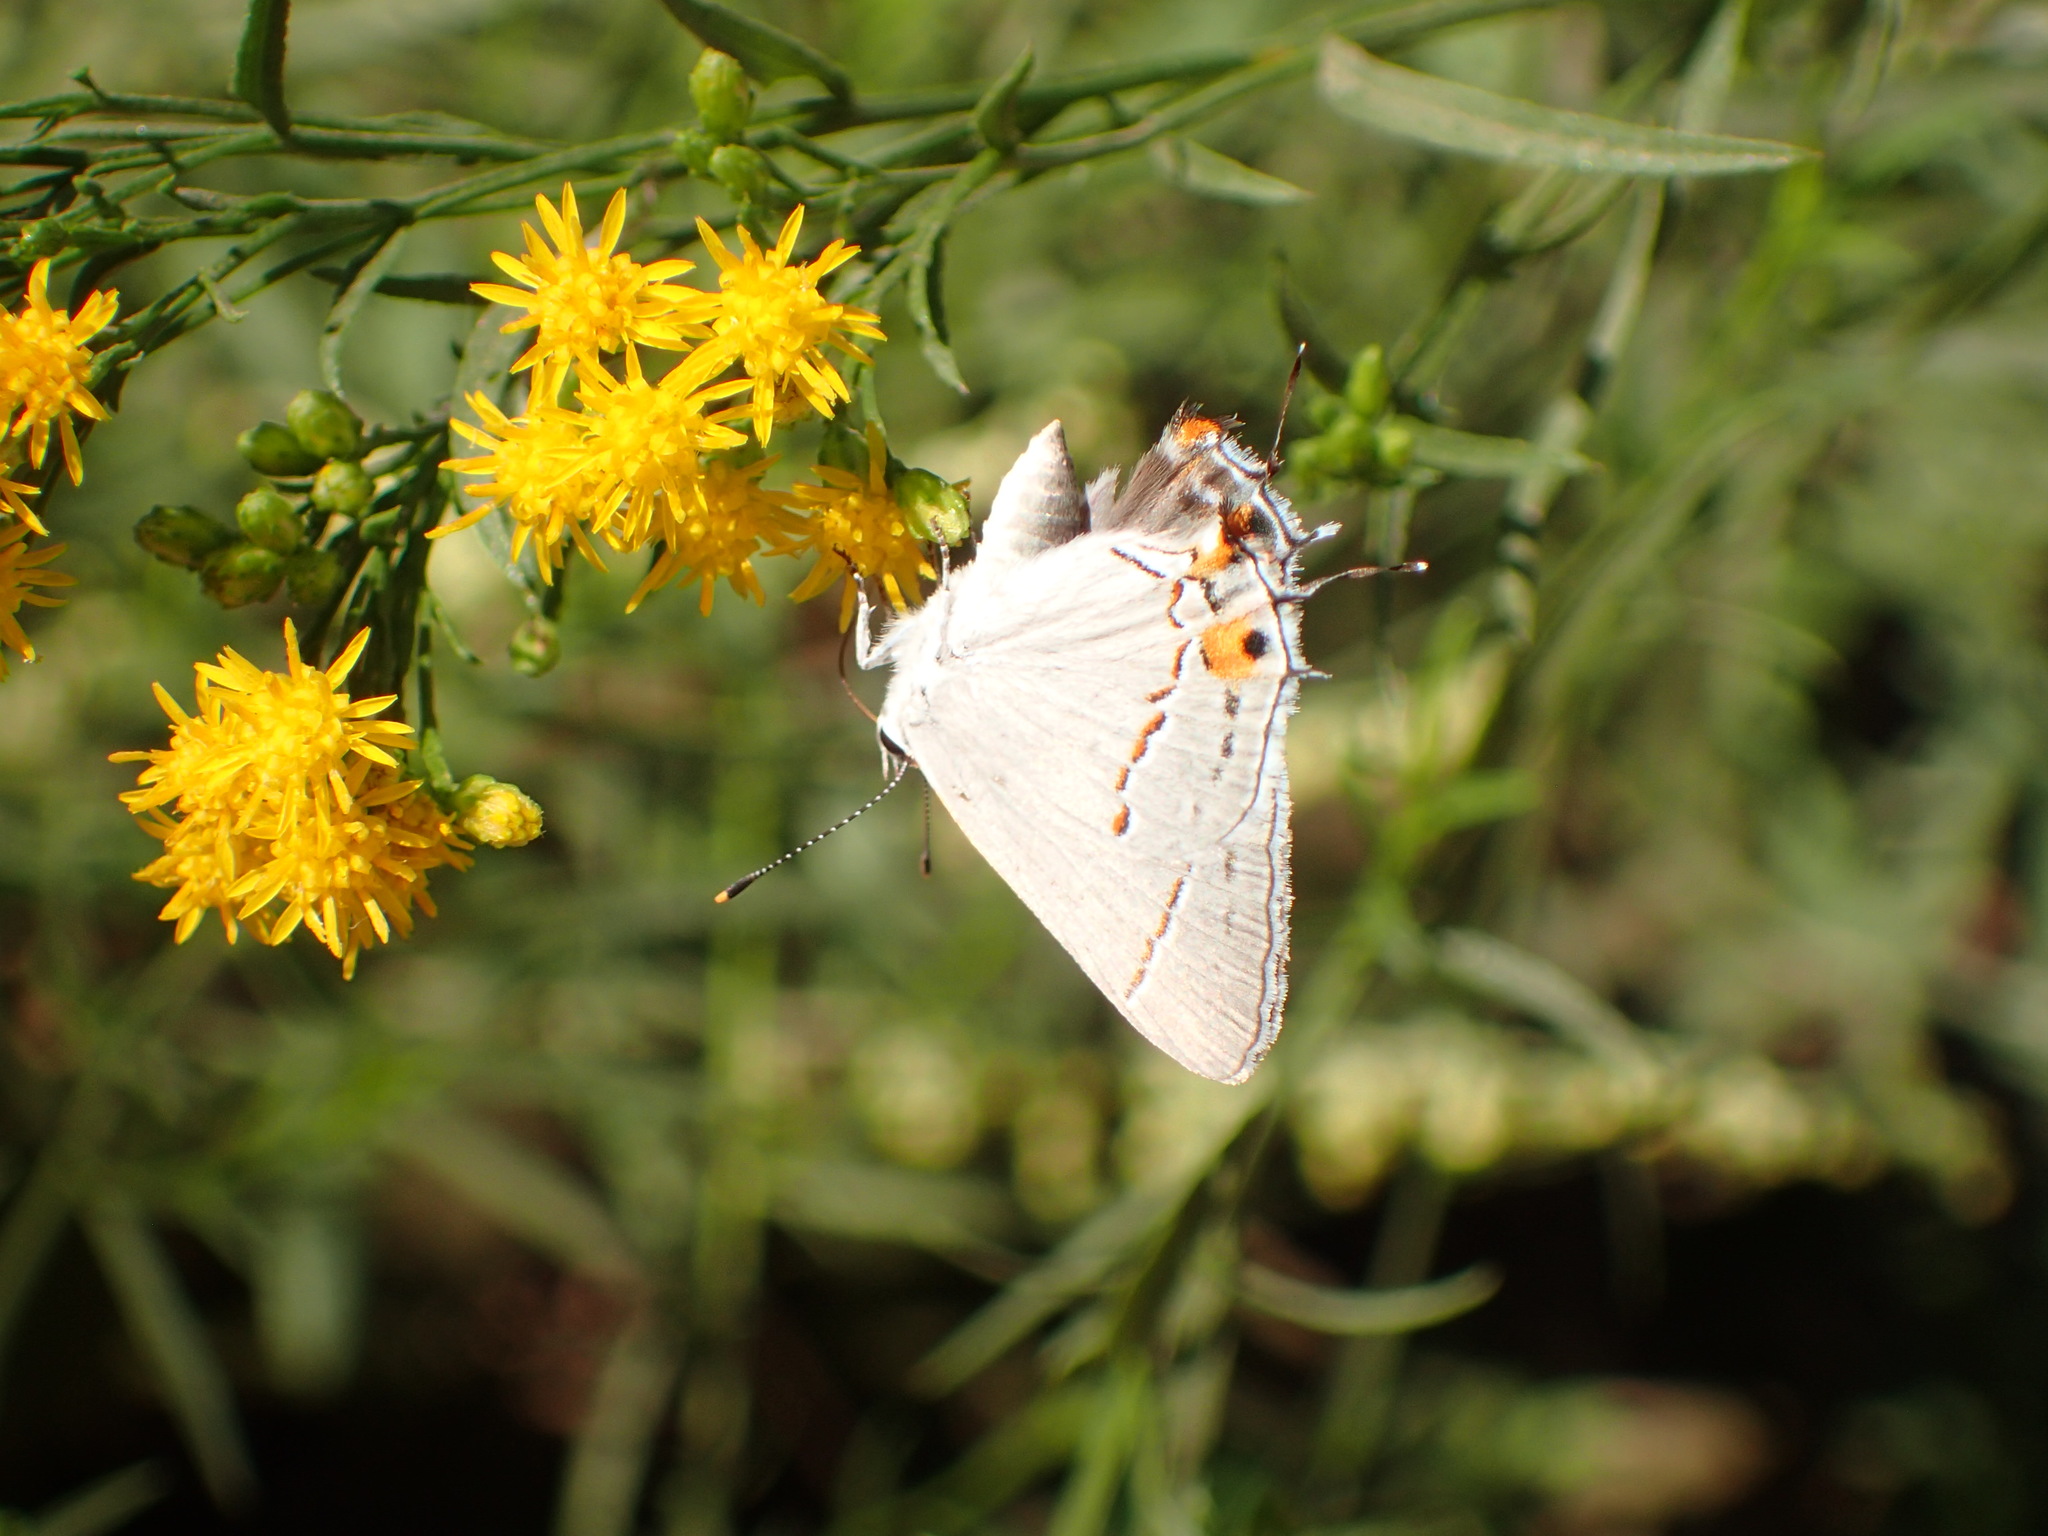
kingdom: Animalia
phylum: Arthropoda
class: Insecta
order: Lepidoptera
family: Lycaenidae
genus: Strymon
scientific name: Strymon melinus
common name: Gray hairstreak
